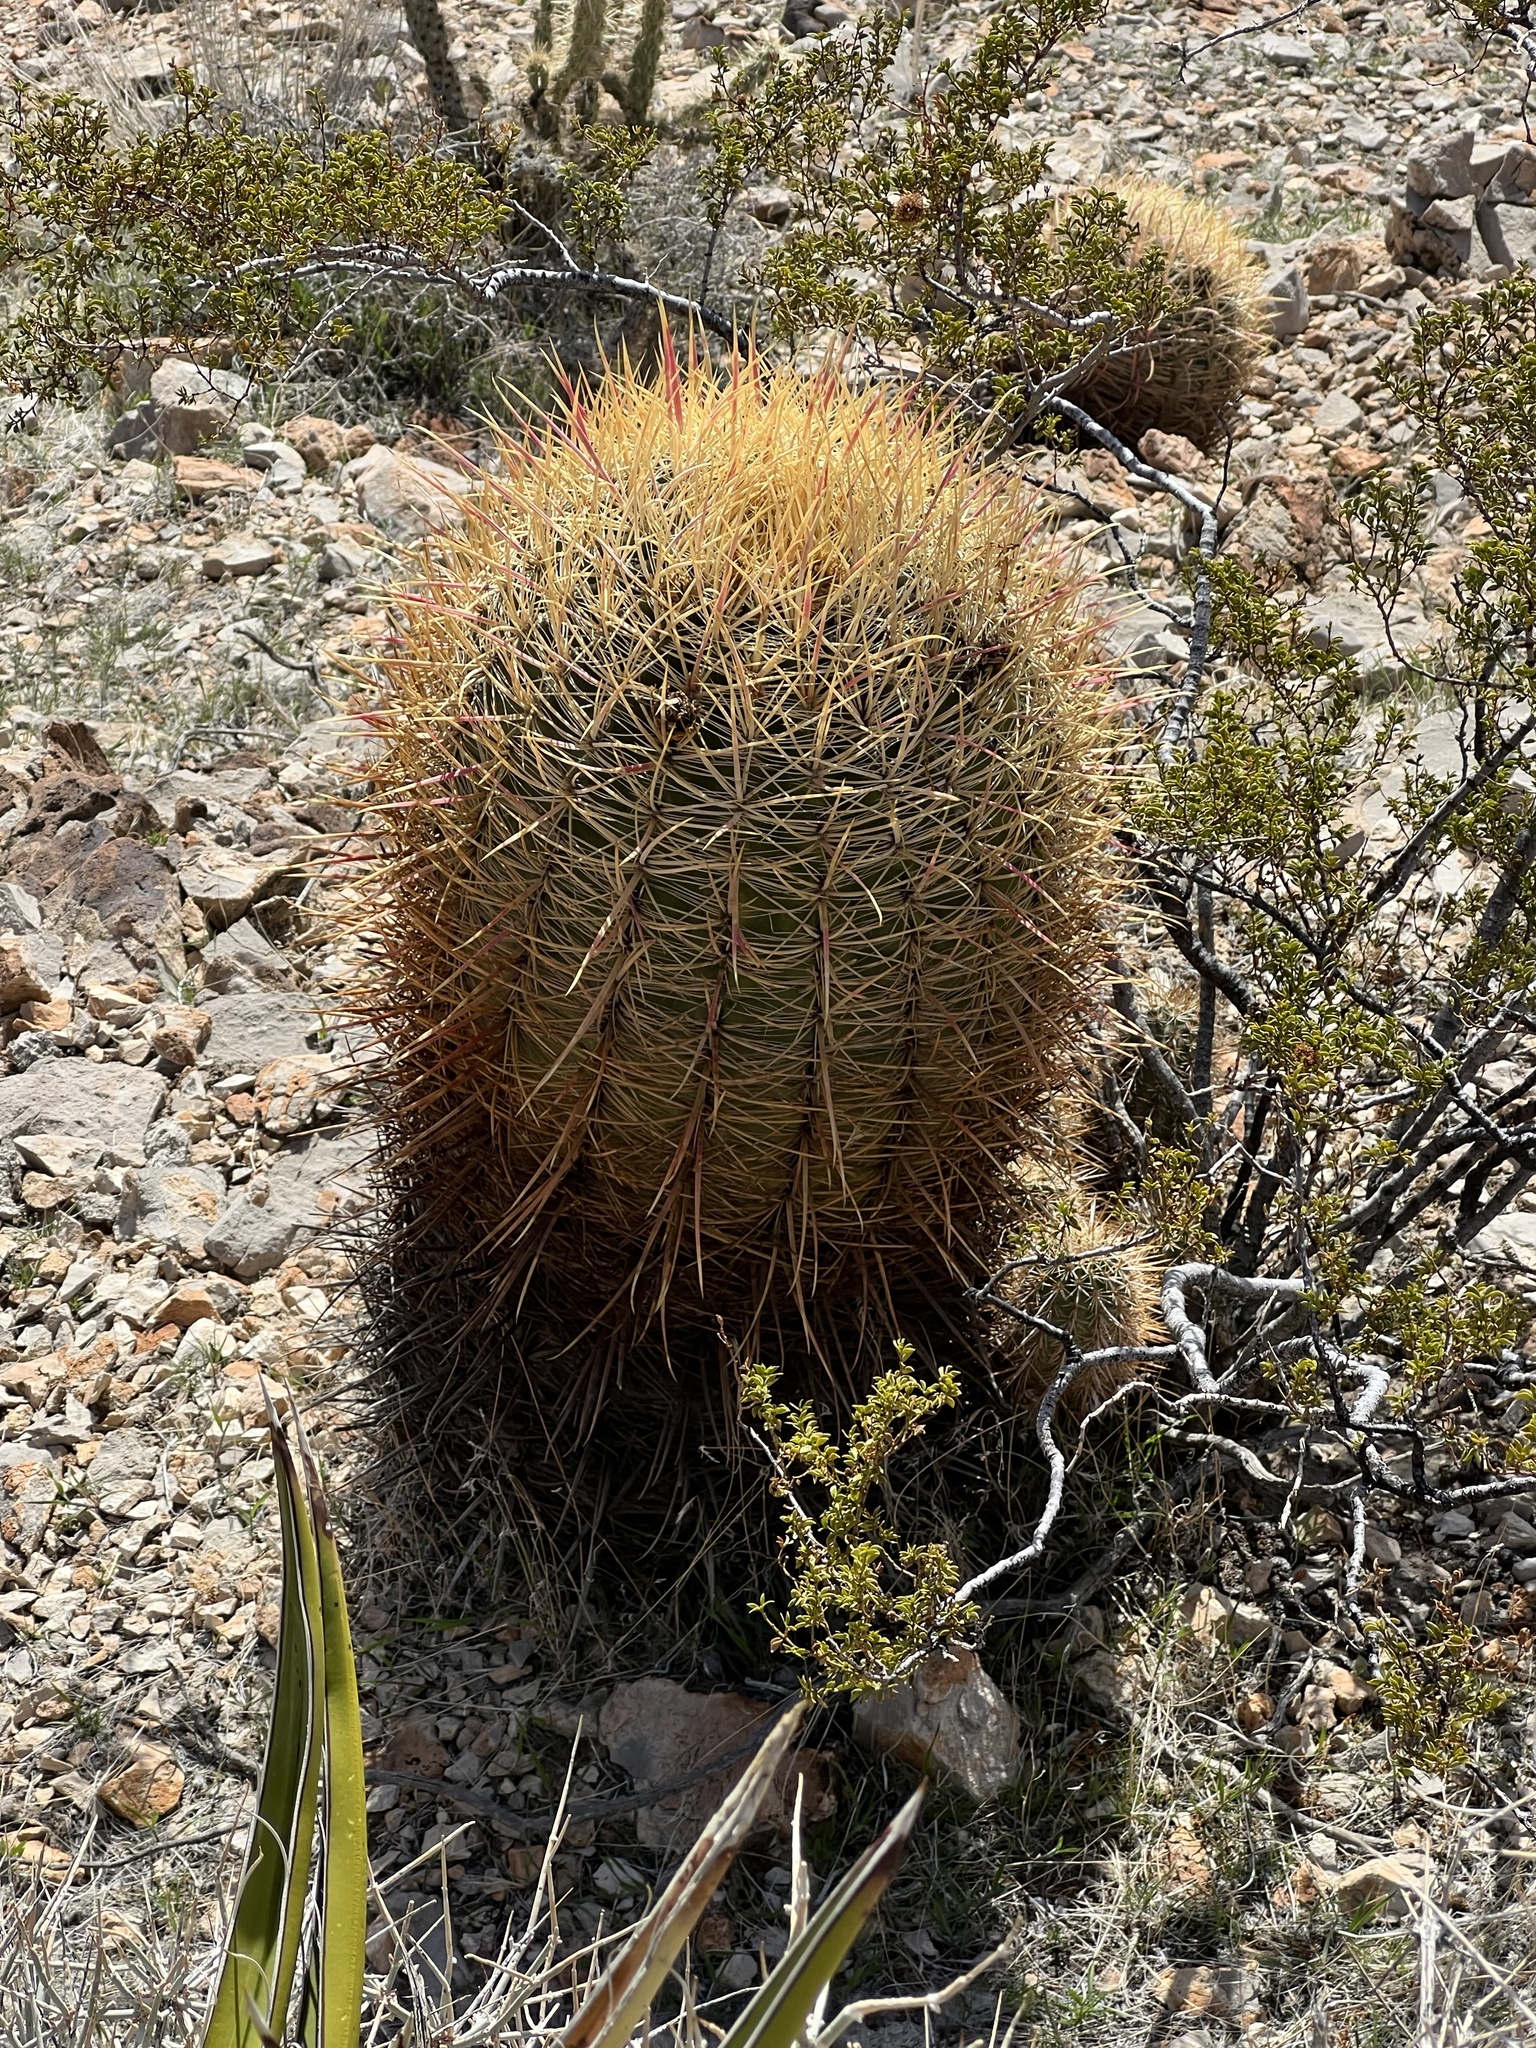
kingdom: Plantae
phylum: Tracheophyta
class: Magnoliopsida
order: Caryophyllales
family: Cactaceae
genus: Ferocactus
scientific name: Ferocactus cylindraceus
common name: California barrel cactus
